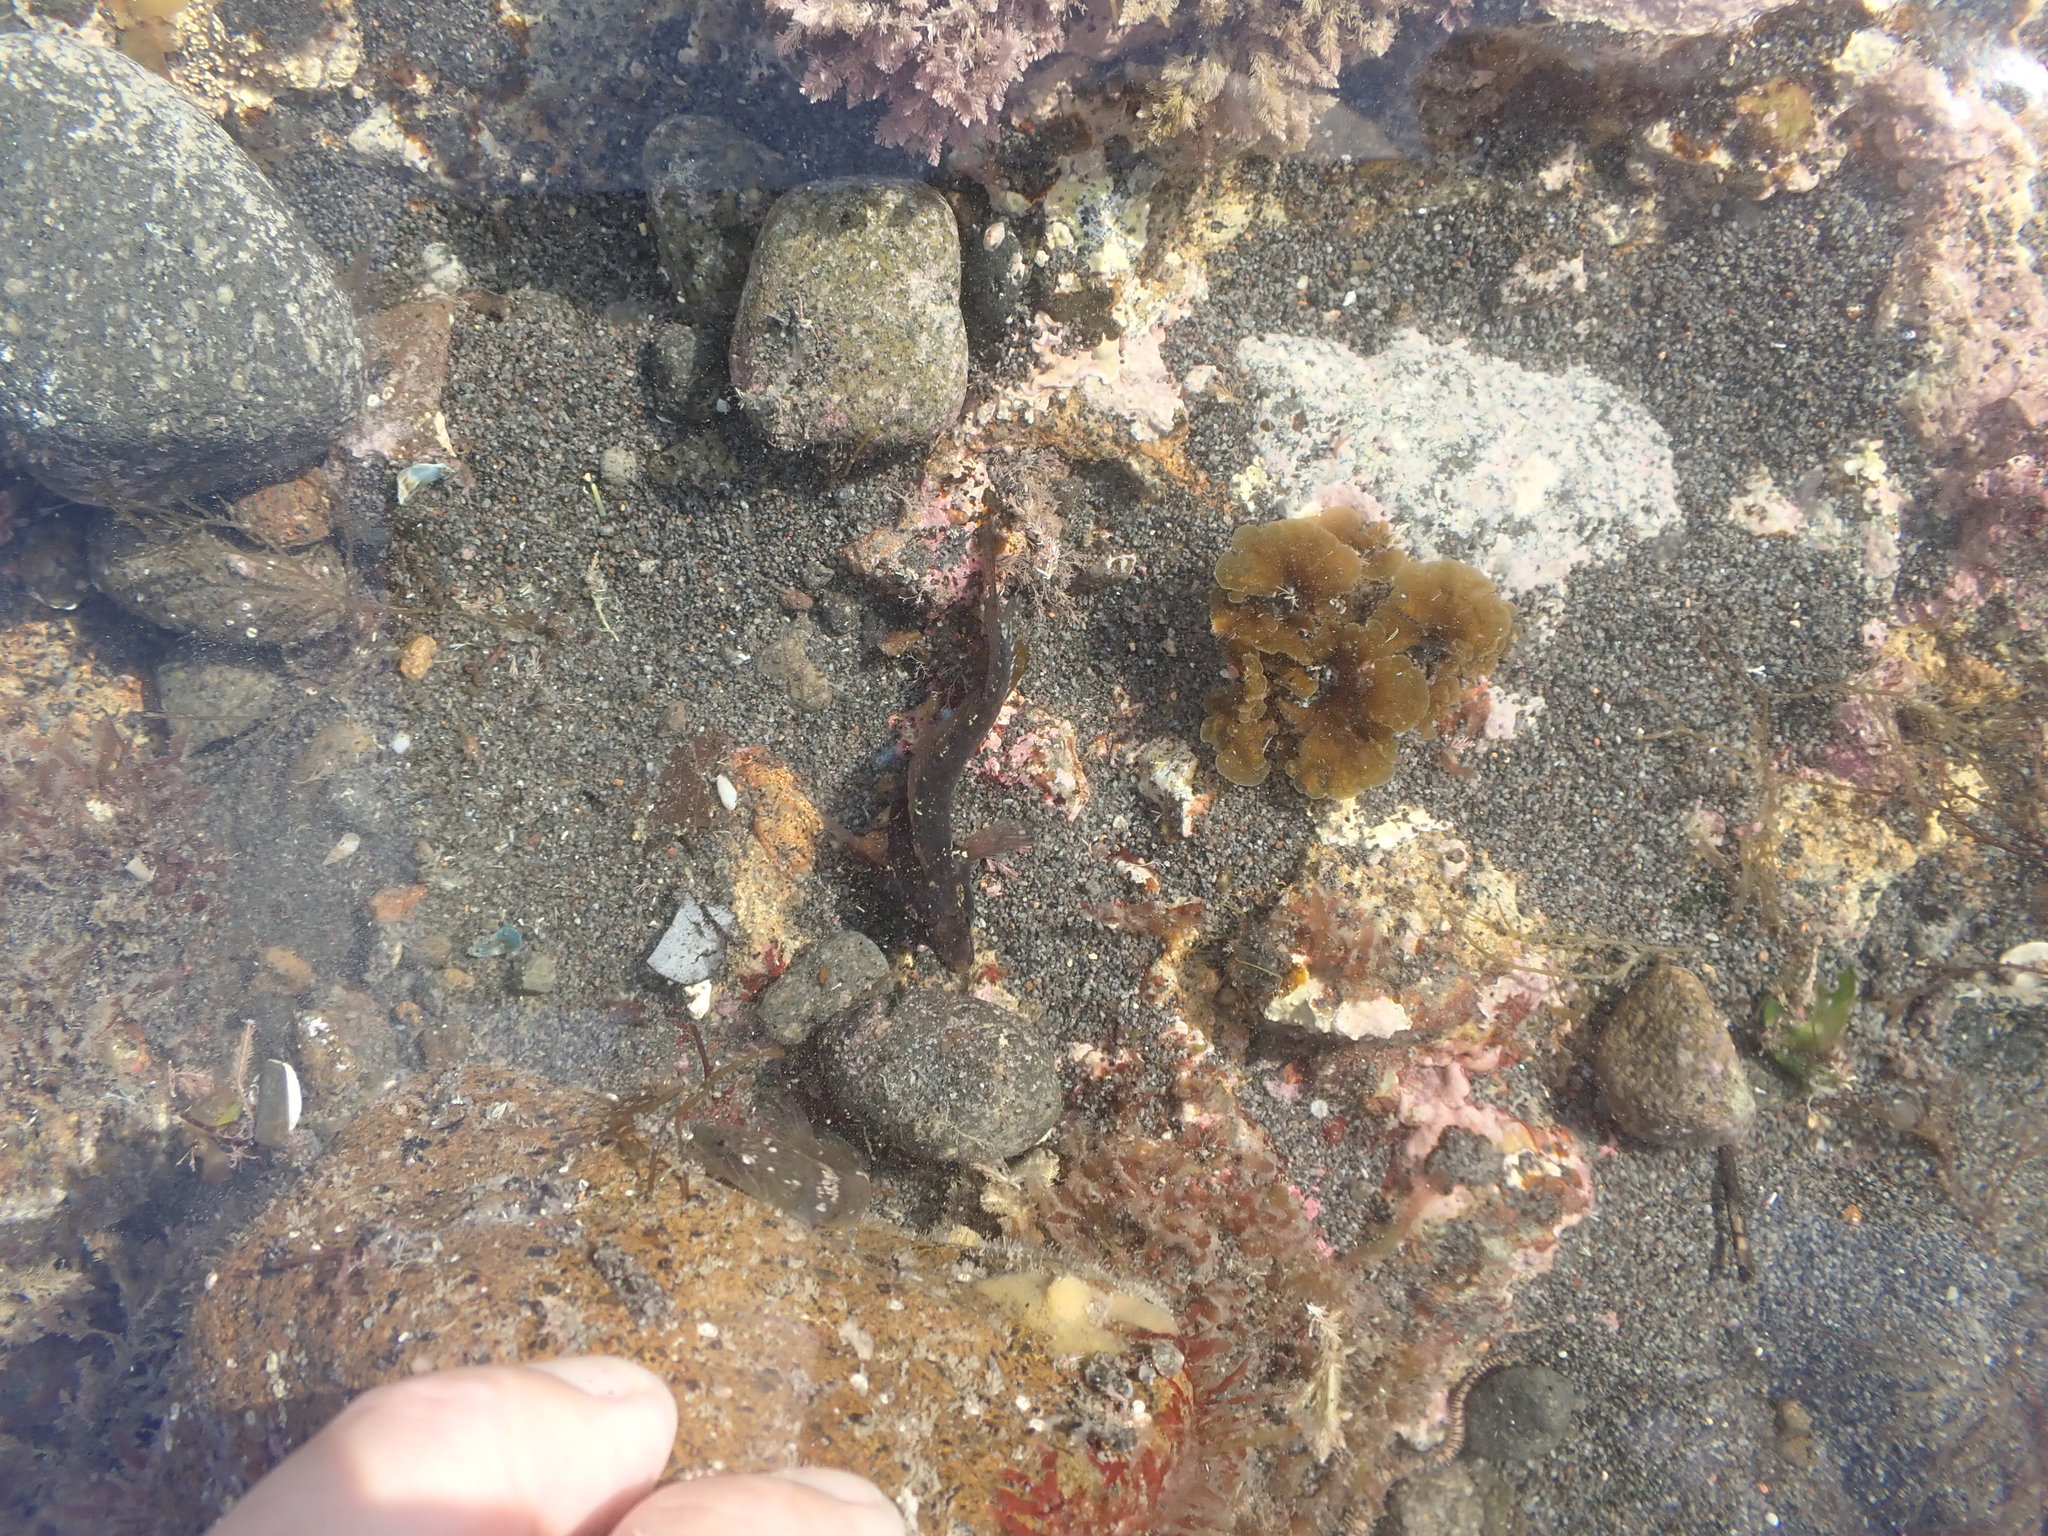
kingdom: Animalia
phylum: Chordata
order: Perciformes
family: Tripterygiidae
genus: Ruanoho
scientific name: Ruanoho decemdigitatus
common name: Longfinned triplefin
